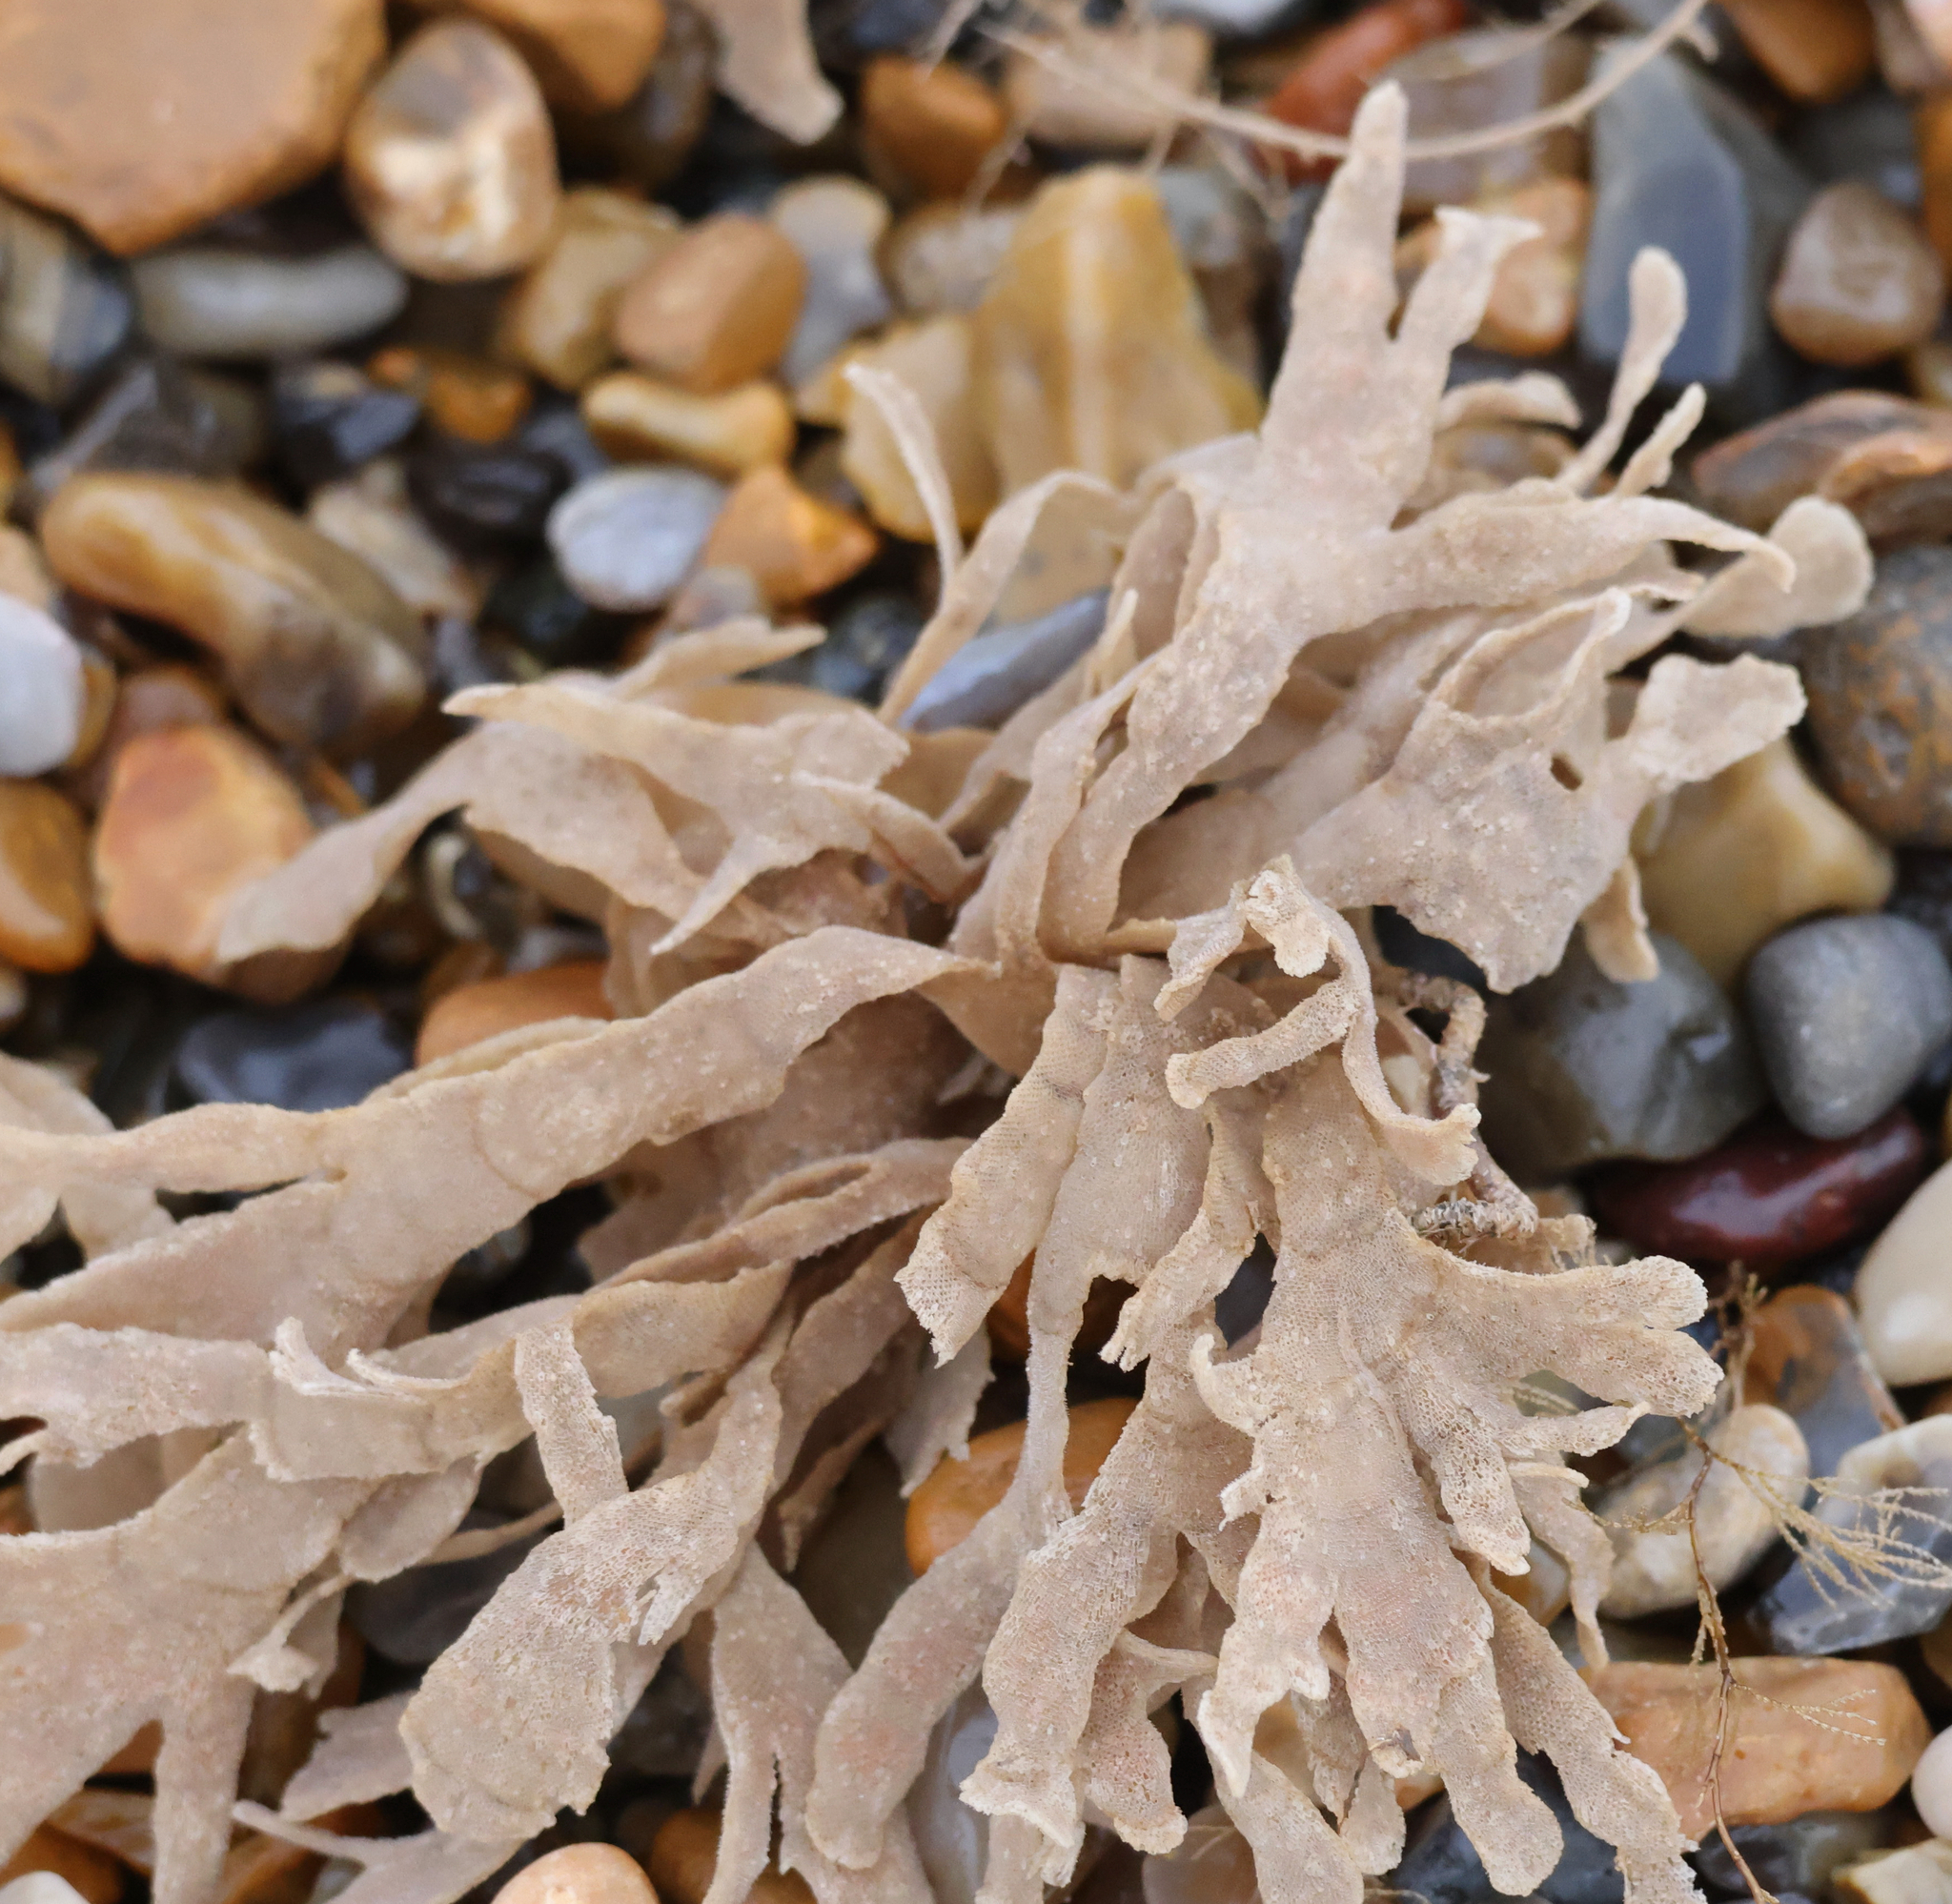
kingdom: Animalia
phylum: Bryozoa
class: Gymnolaemata
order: Cheilostomatida
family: Flustridae
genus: Flustra
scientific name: Flustra foliacea
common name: Hornwrack
